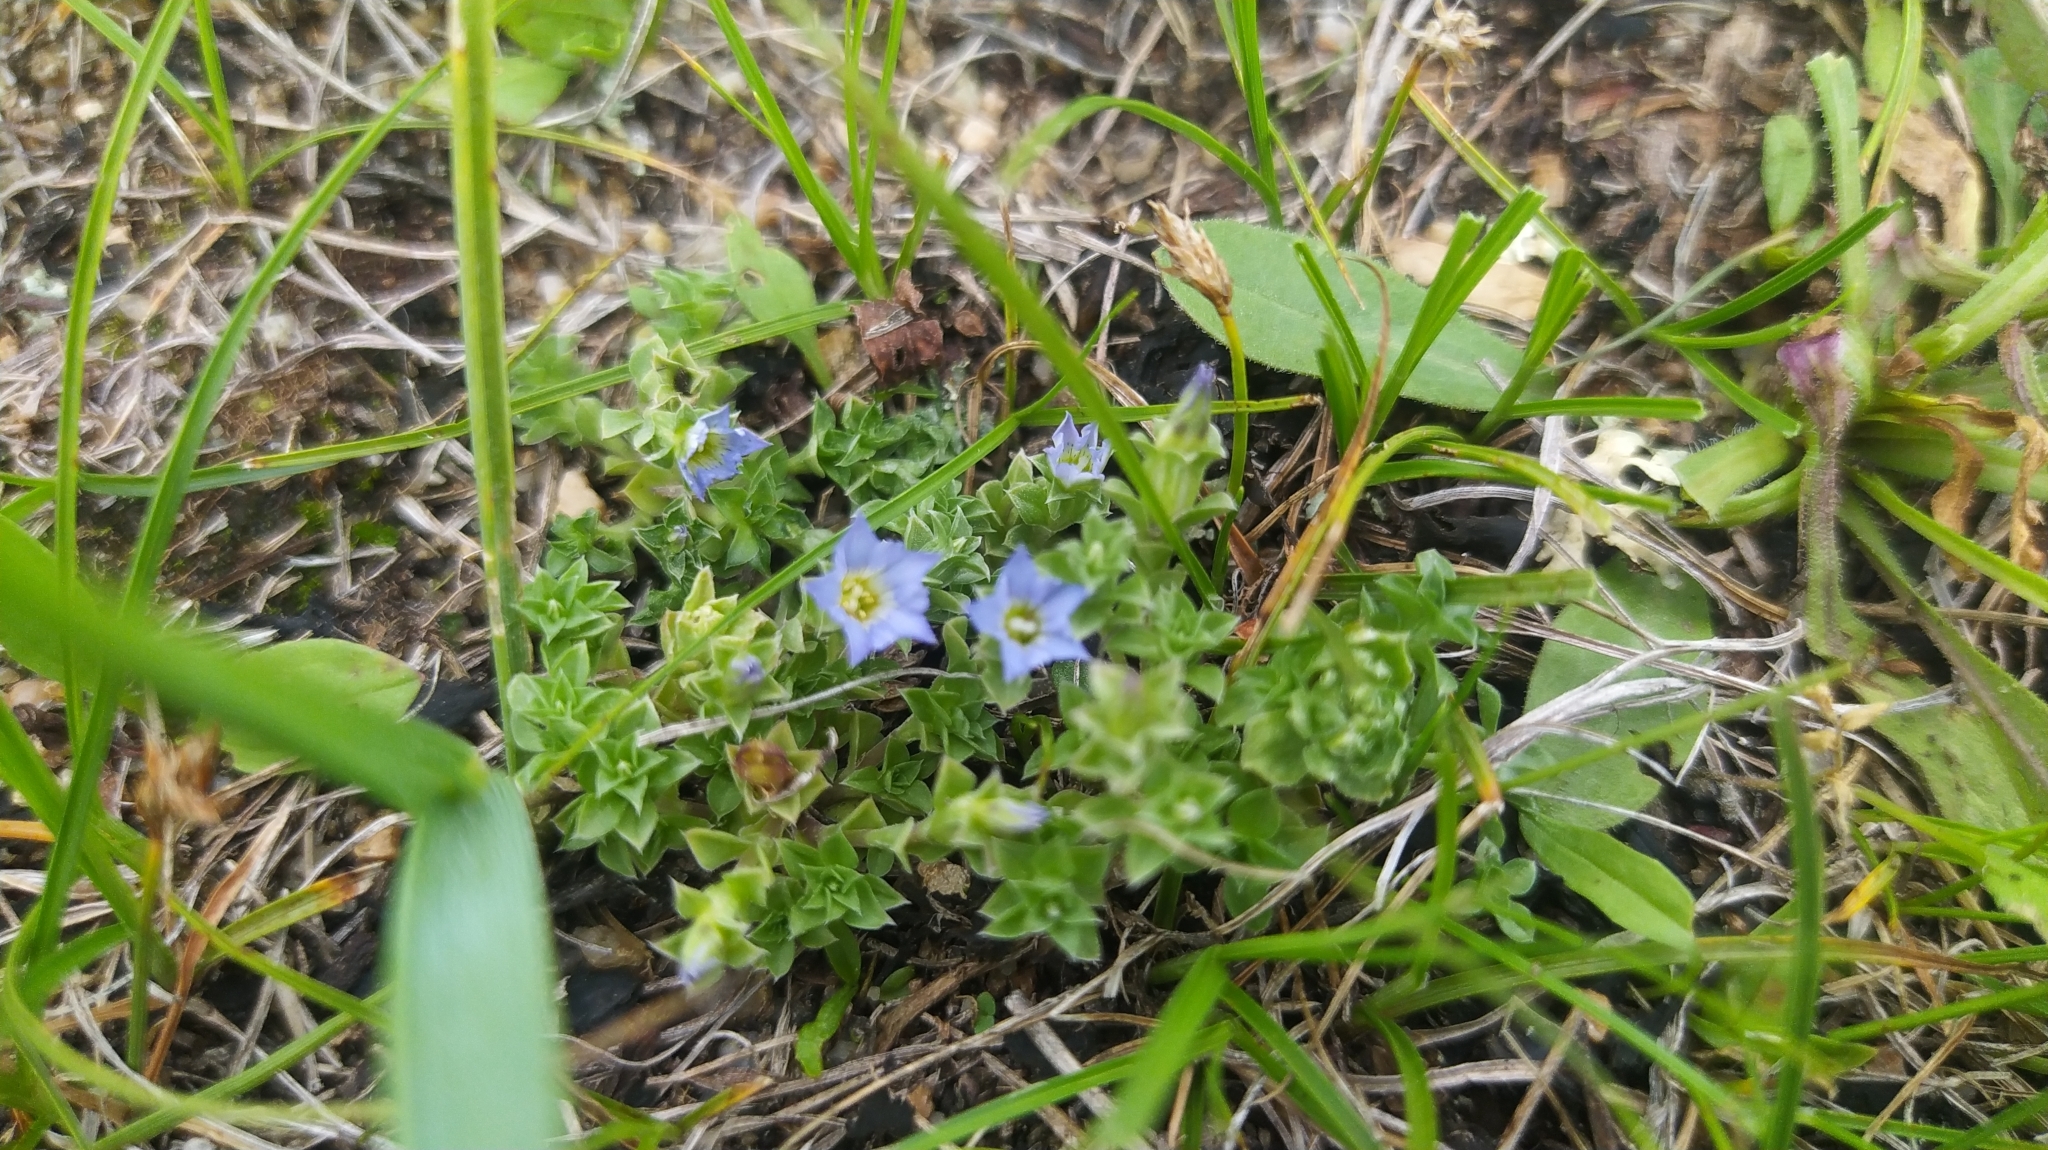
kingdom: Plantae
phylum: Tracheophyta
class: Magnoliopsida
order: Gentianales
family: Gentianaceae
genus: Gentiana
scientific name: Gentiana squarrosa
